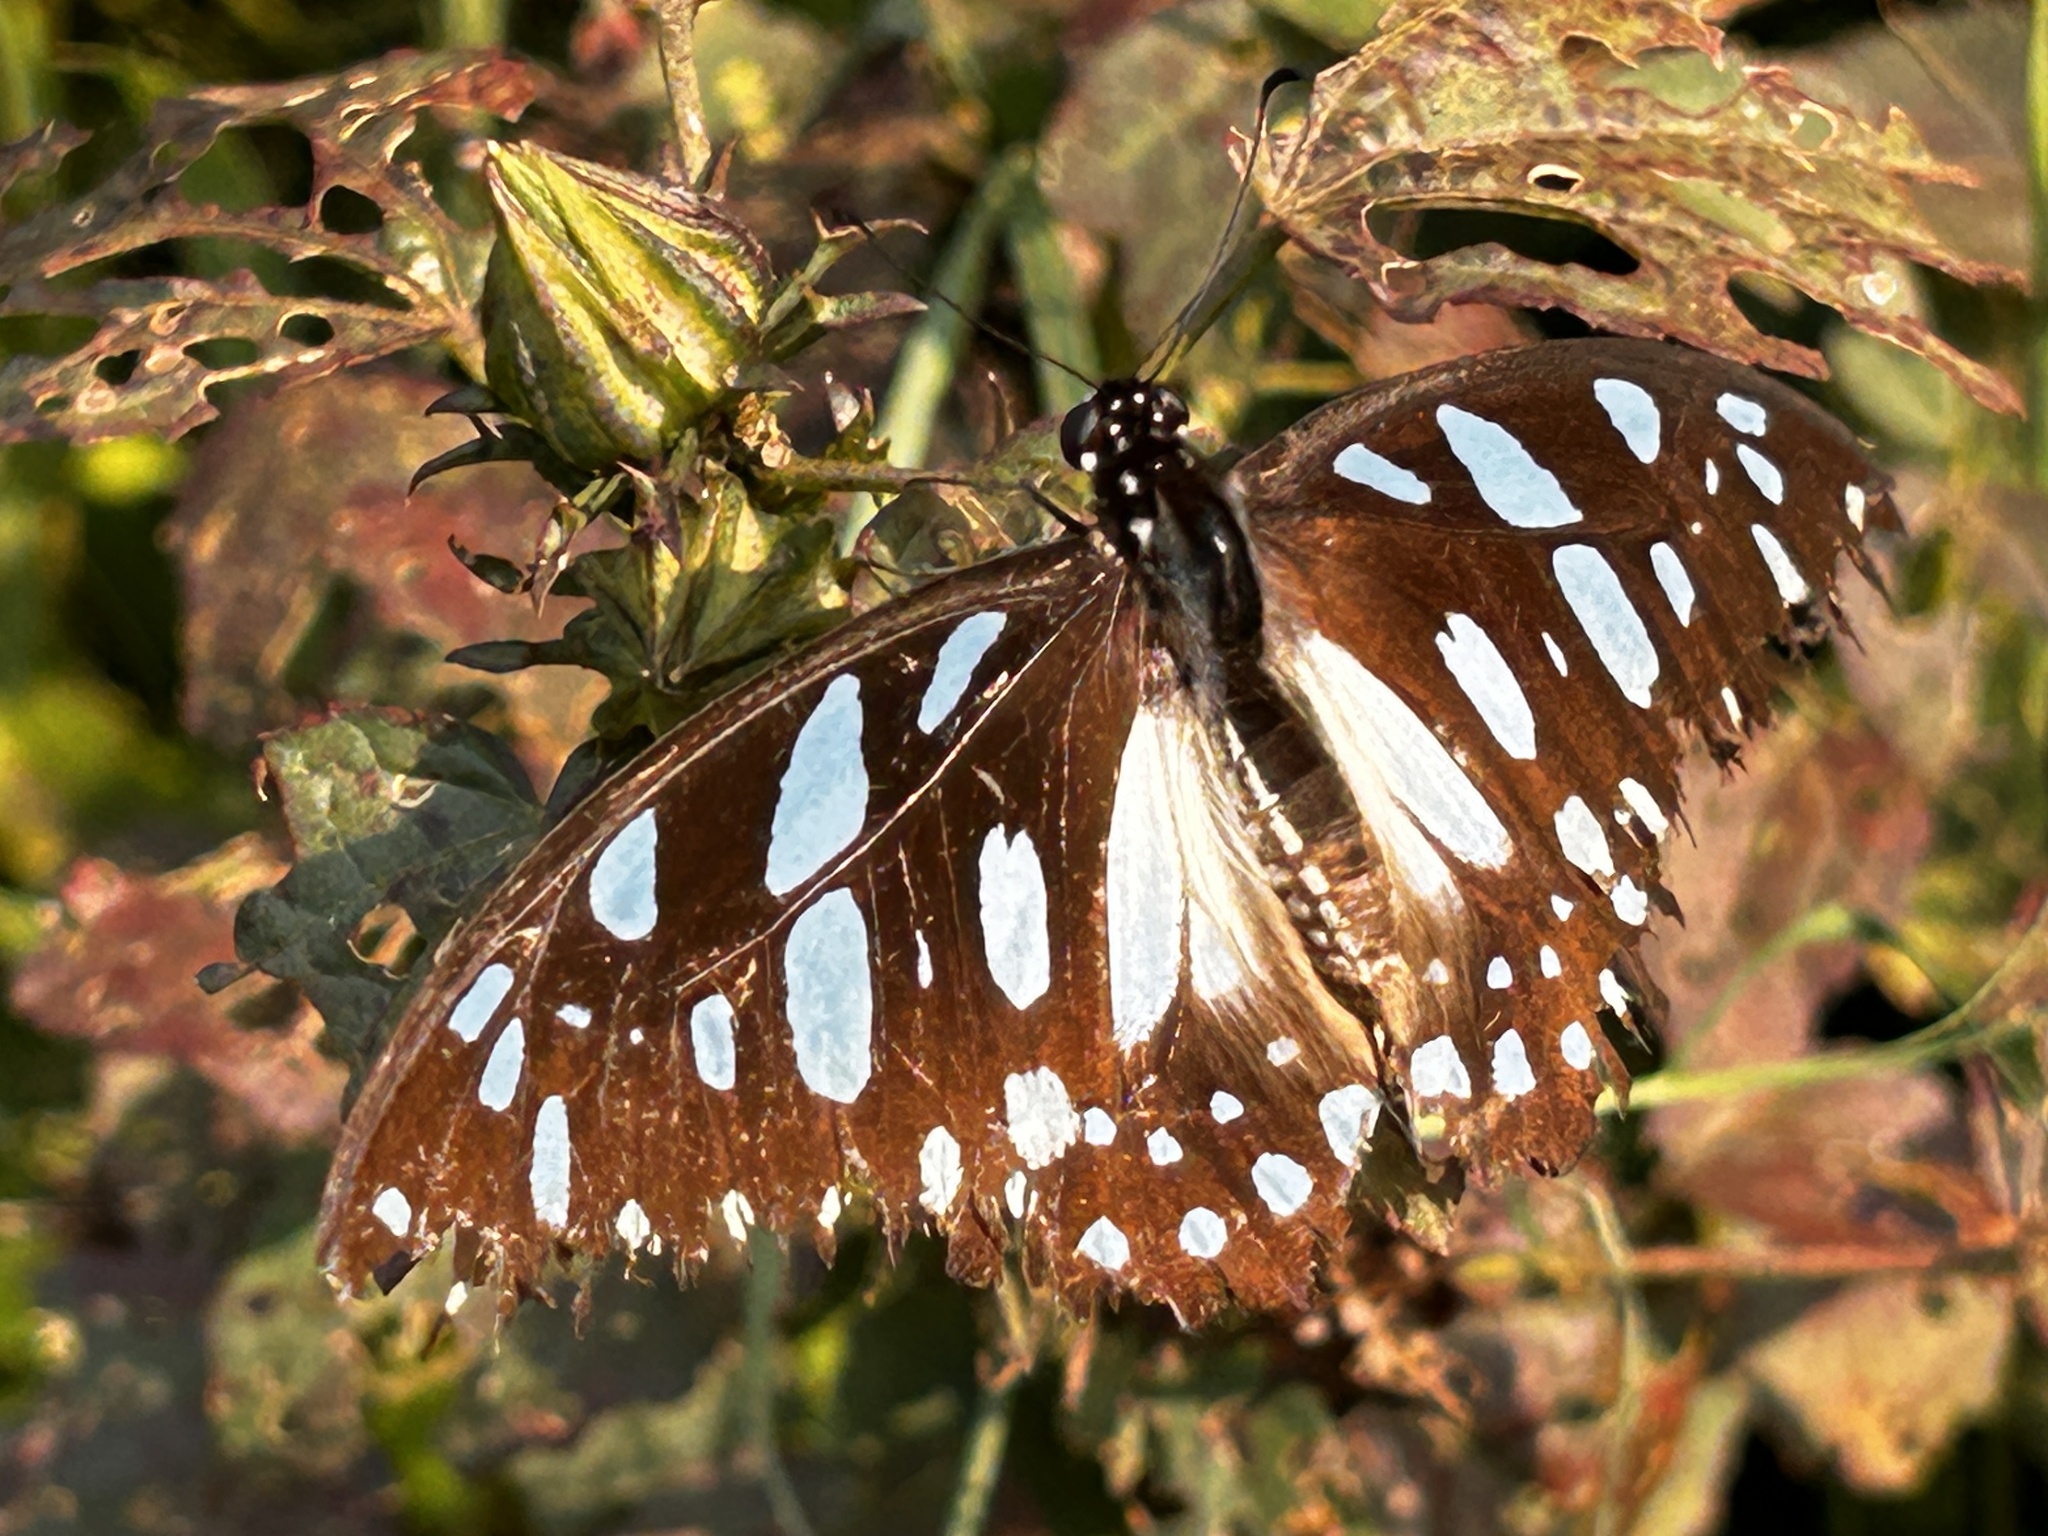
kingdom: Animalia
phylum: Arthropoda
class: Insecta
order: Lepidoptera
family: Papilionidae
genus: Graphium
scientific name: Graphium leonidas
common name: Common graphium
